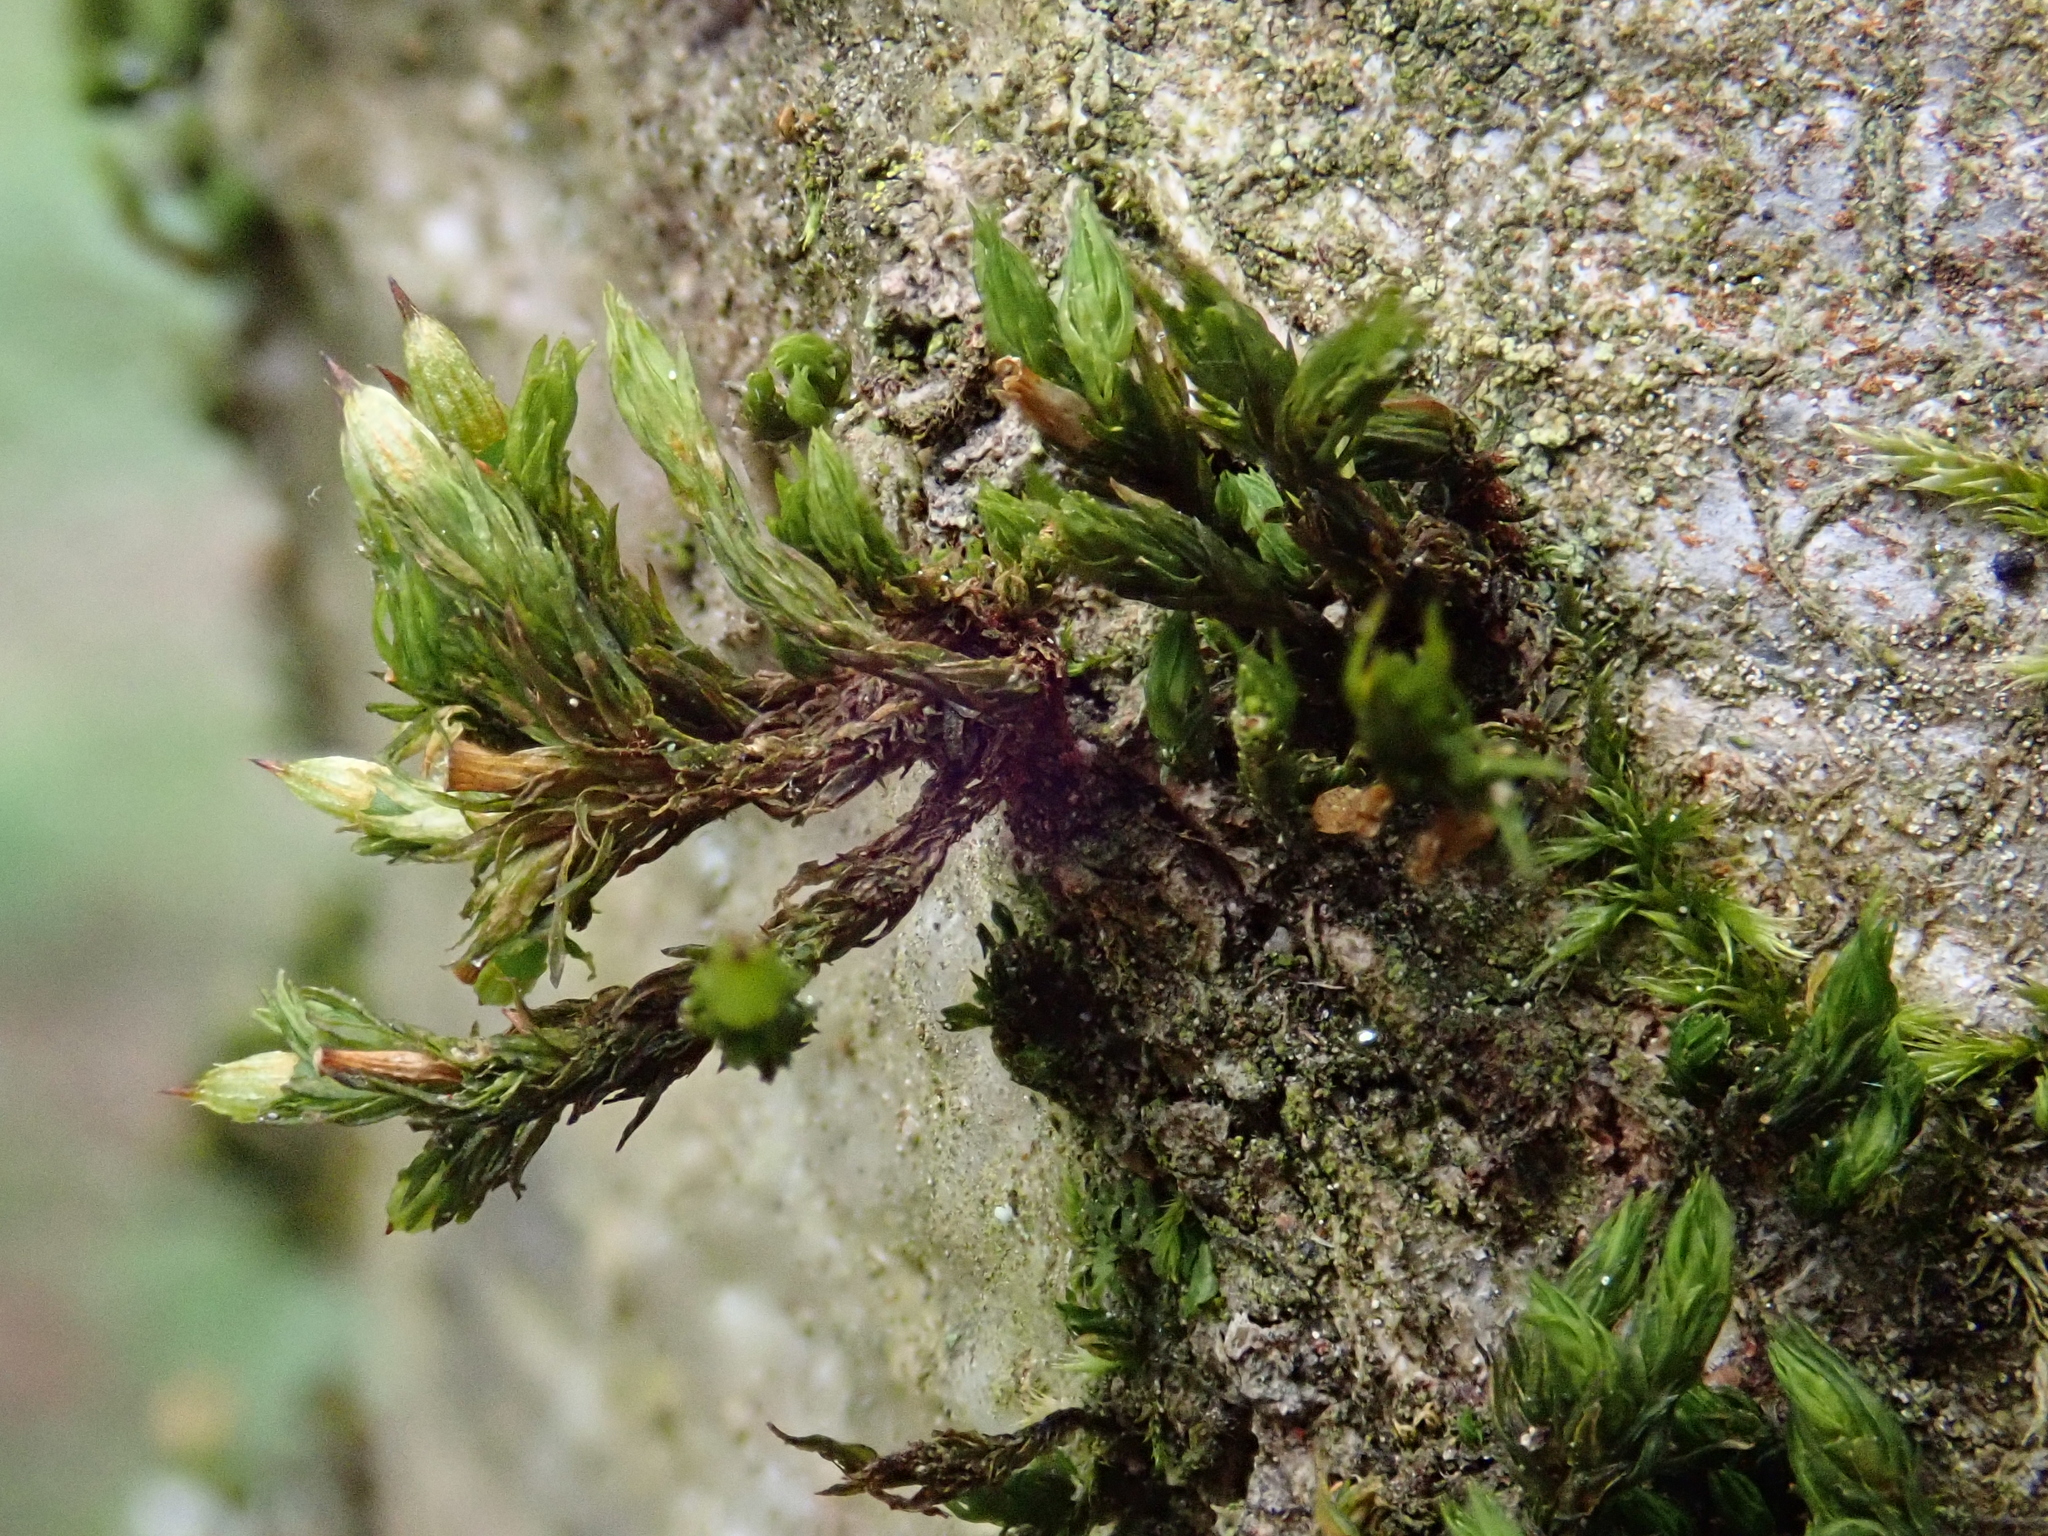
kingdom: Plantae
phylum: Bryophyta
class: Bryopsida
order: Orthotrichales
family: Orthotrichaceae
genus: Lewinskya
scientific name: Lewinskya affinis
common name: Wood bristle-moss
